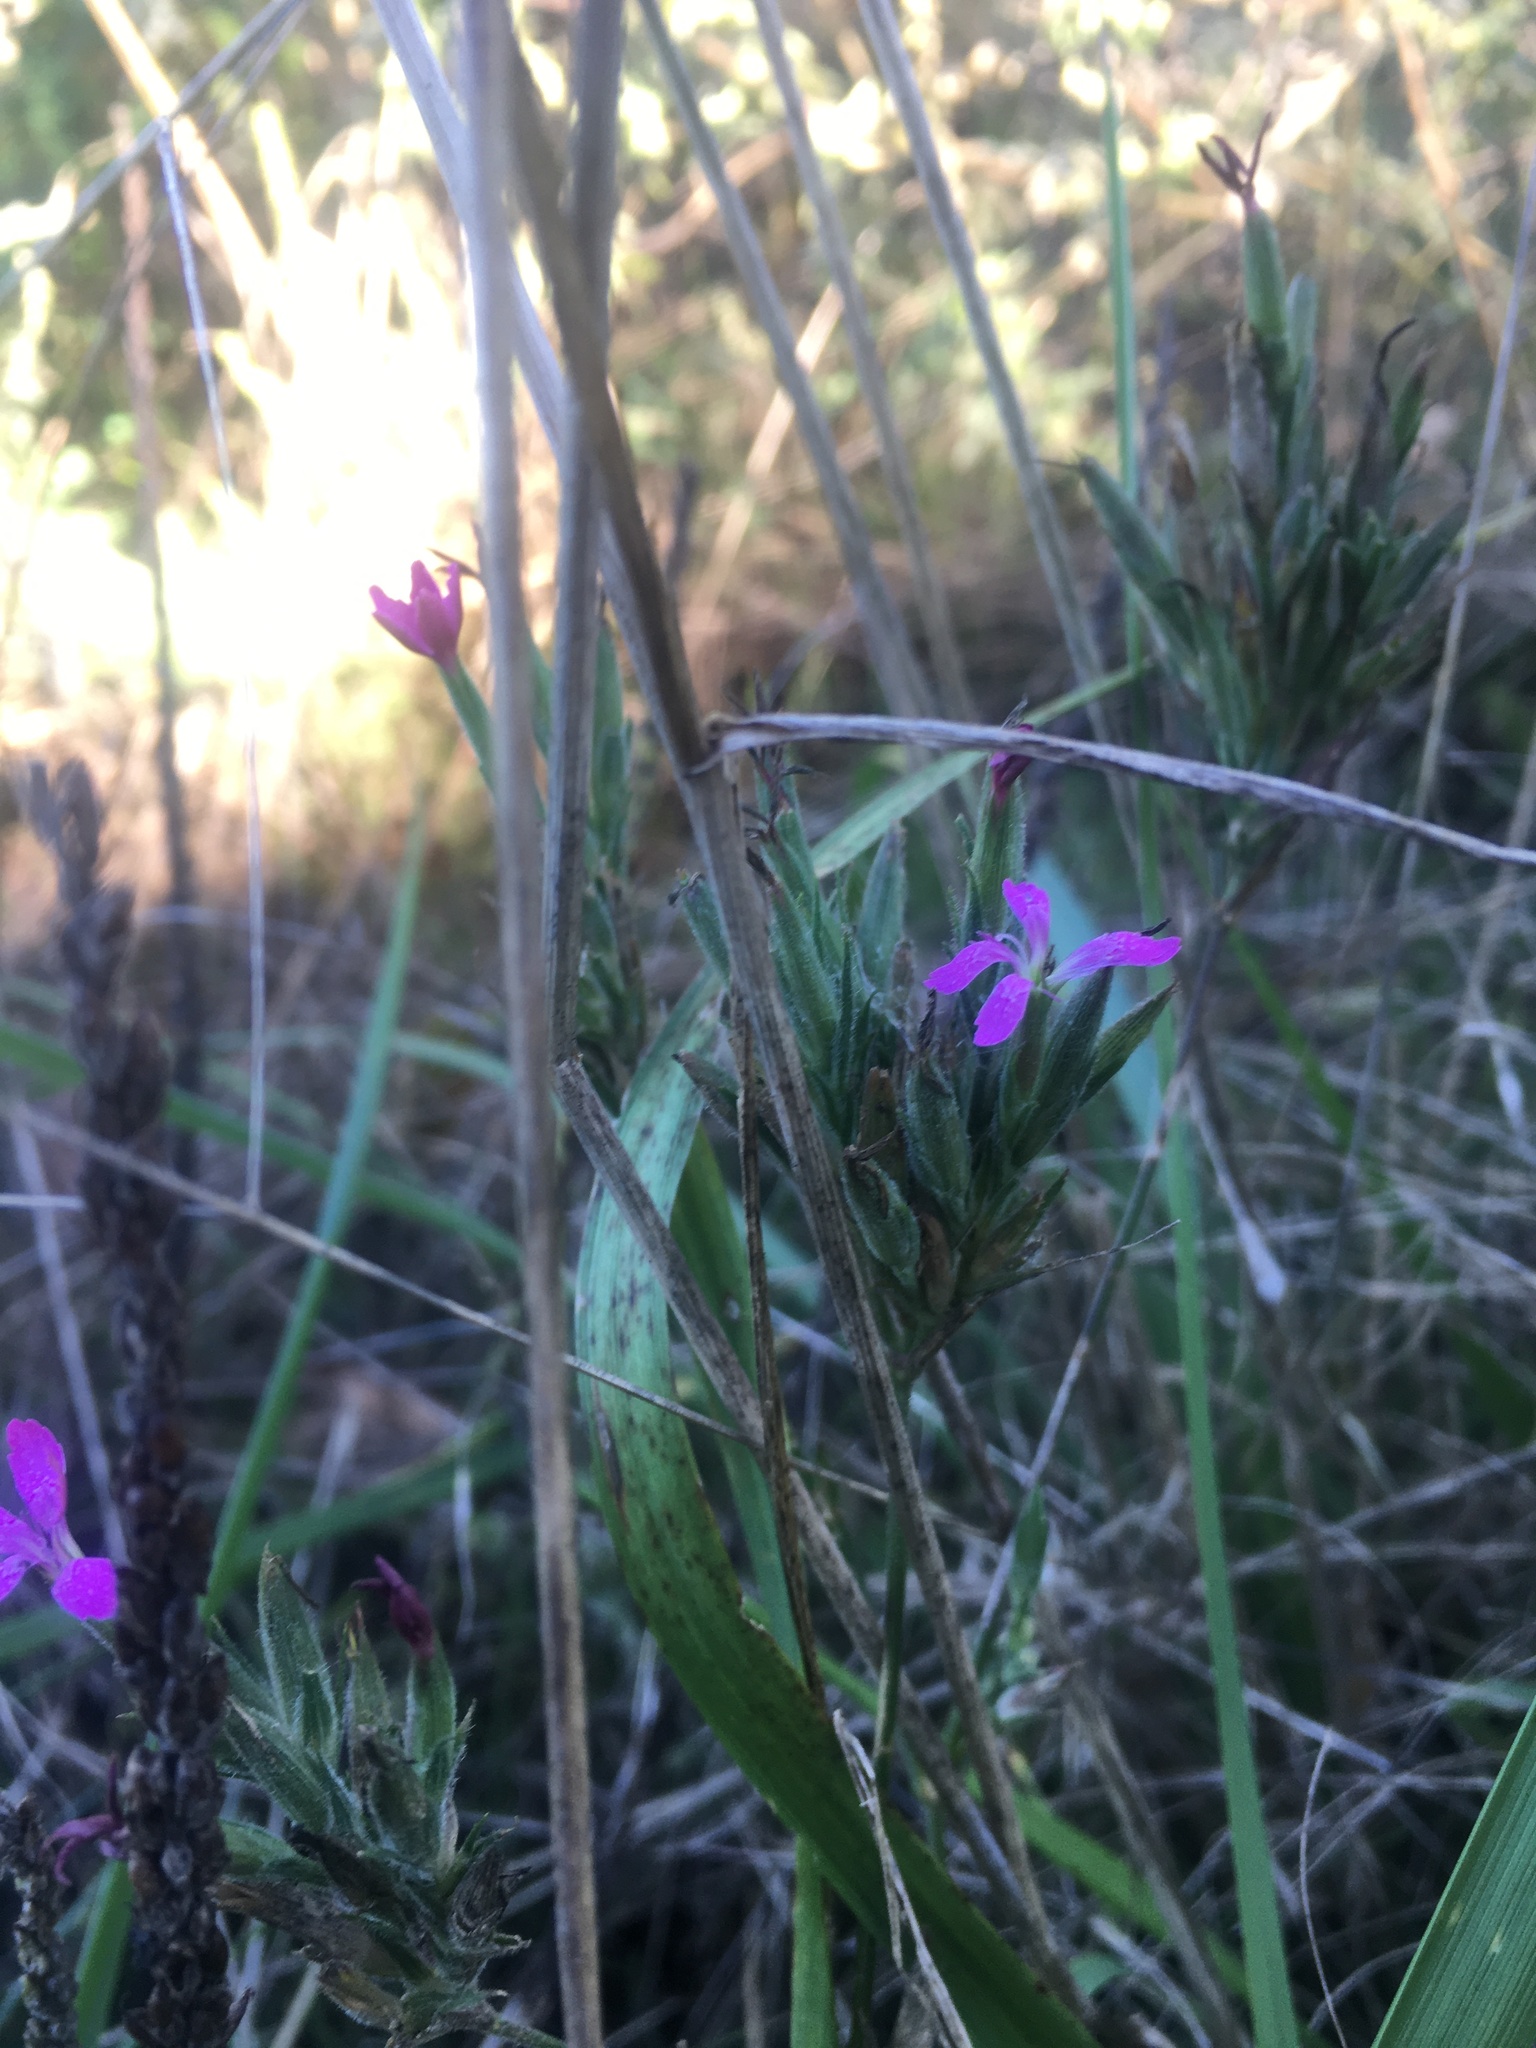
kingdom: Plantae
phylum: Tracheophyta
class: Magnoliopsida
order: Caryophyllales
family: Caryophyllaceae
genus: Dianthus
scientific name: Dianthus armeria
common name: Deptford pink
